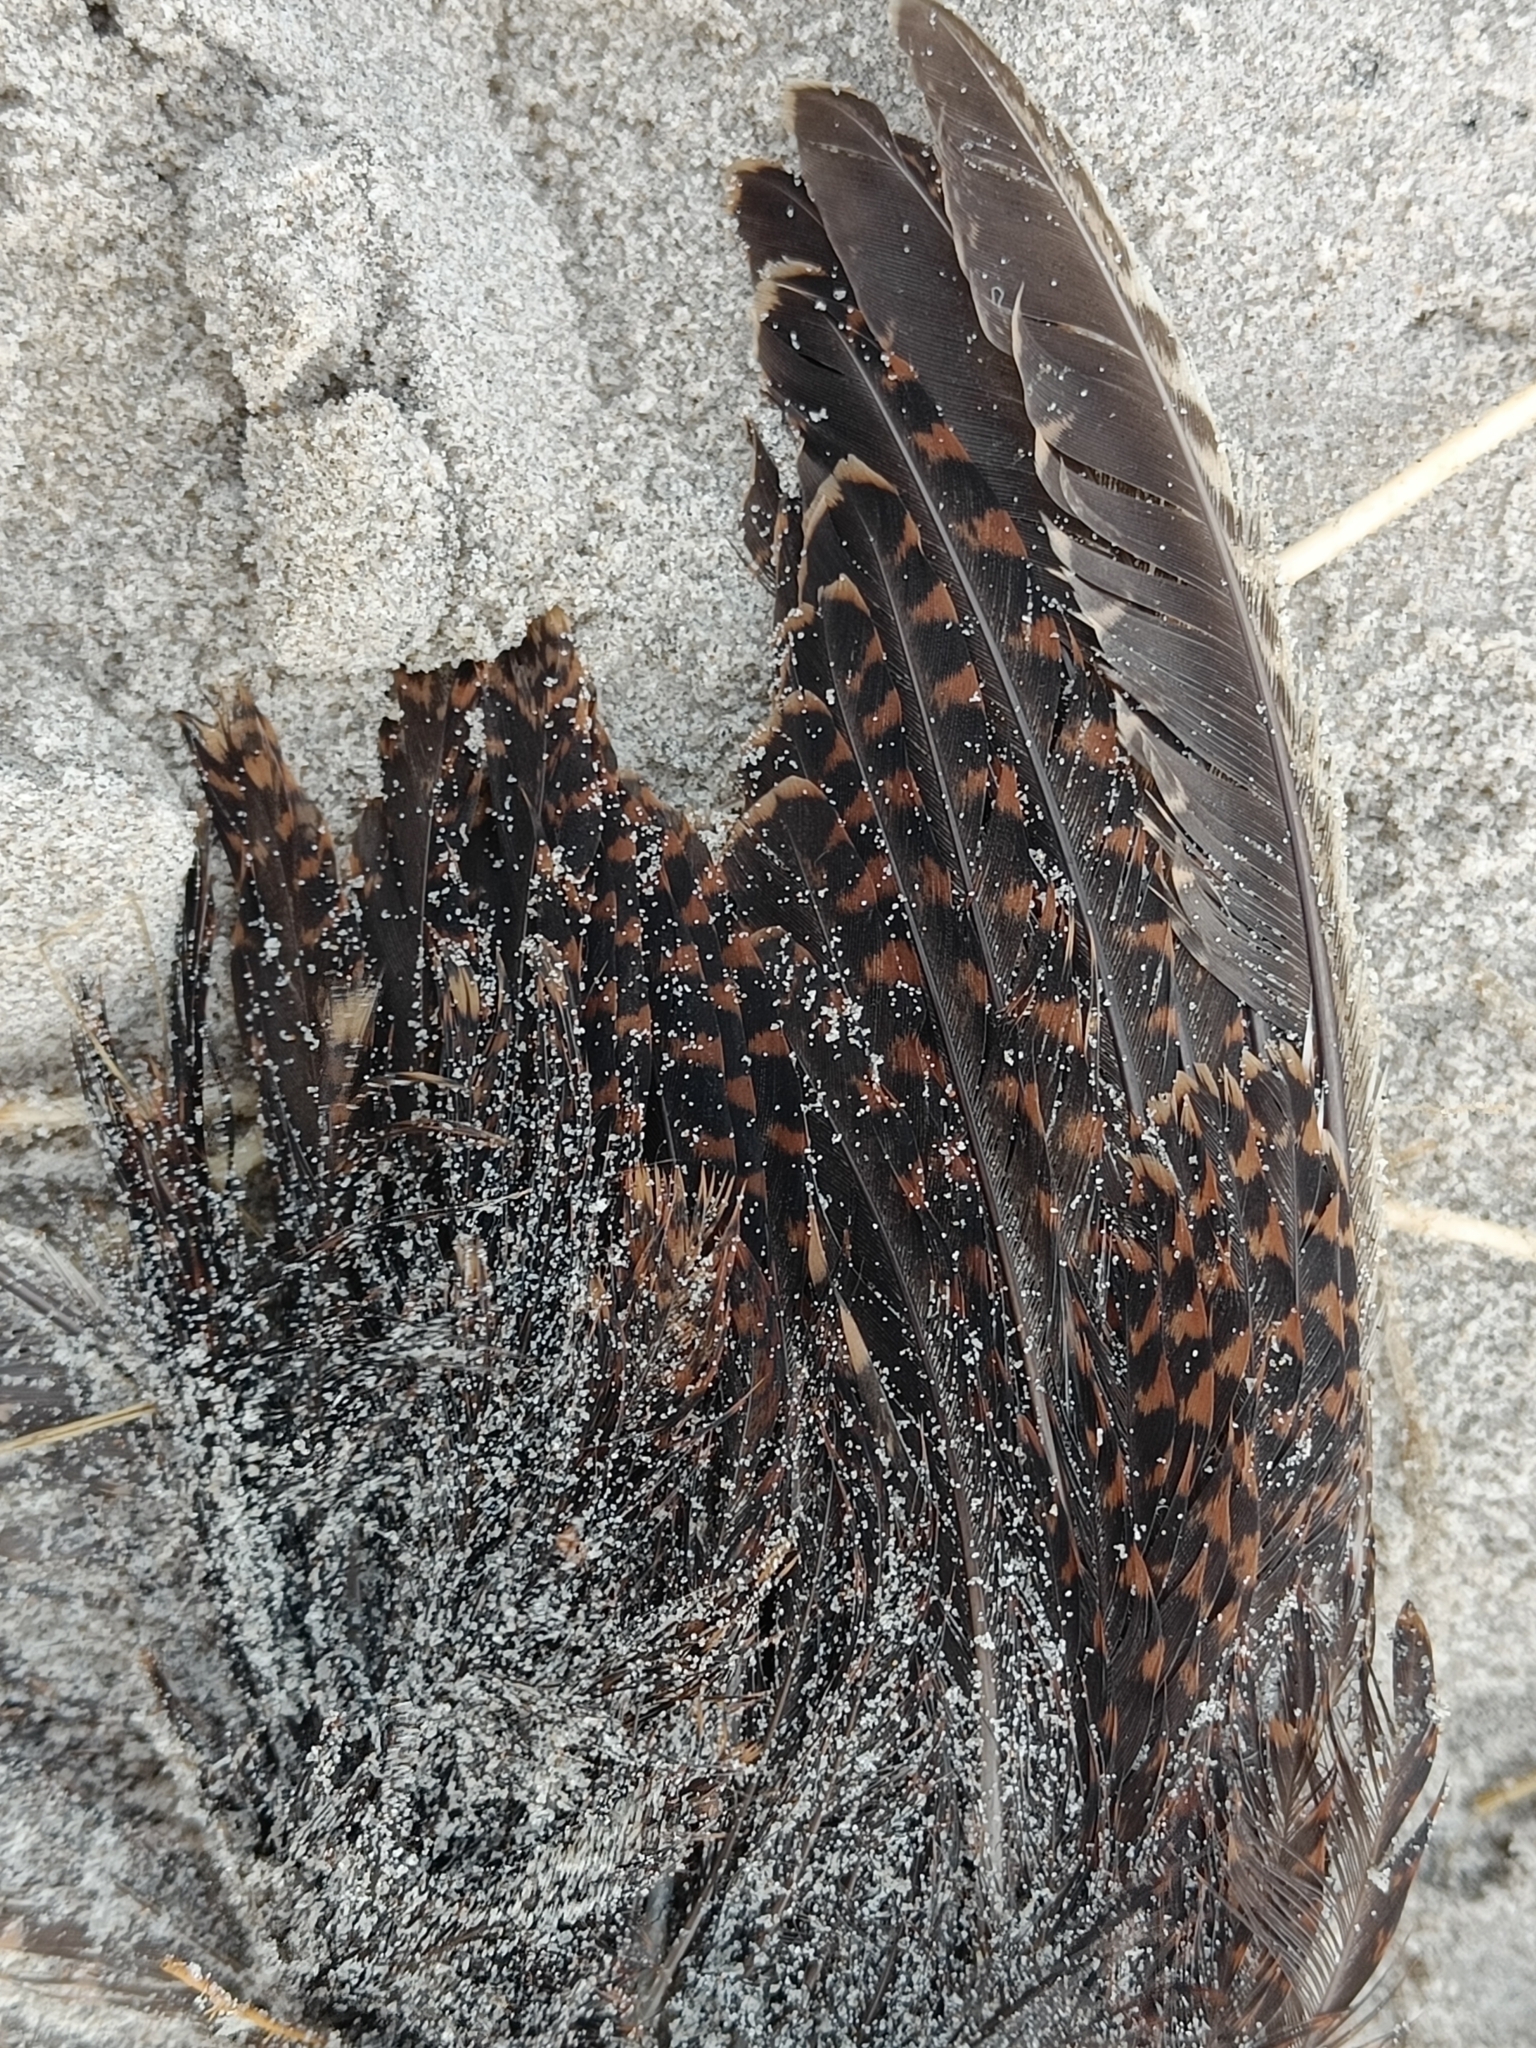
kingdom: Animalia
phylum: Chordata
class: Aves
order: Charadriiformes
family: Scolopacidae
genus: Scolopax
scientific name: Scolopax rusticola
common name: Eurasian woodcock
